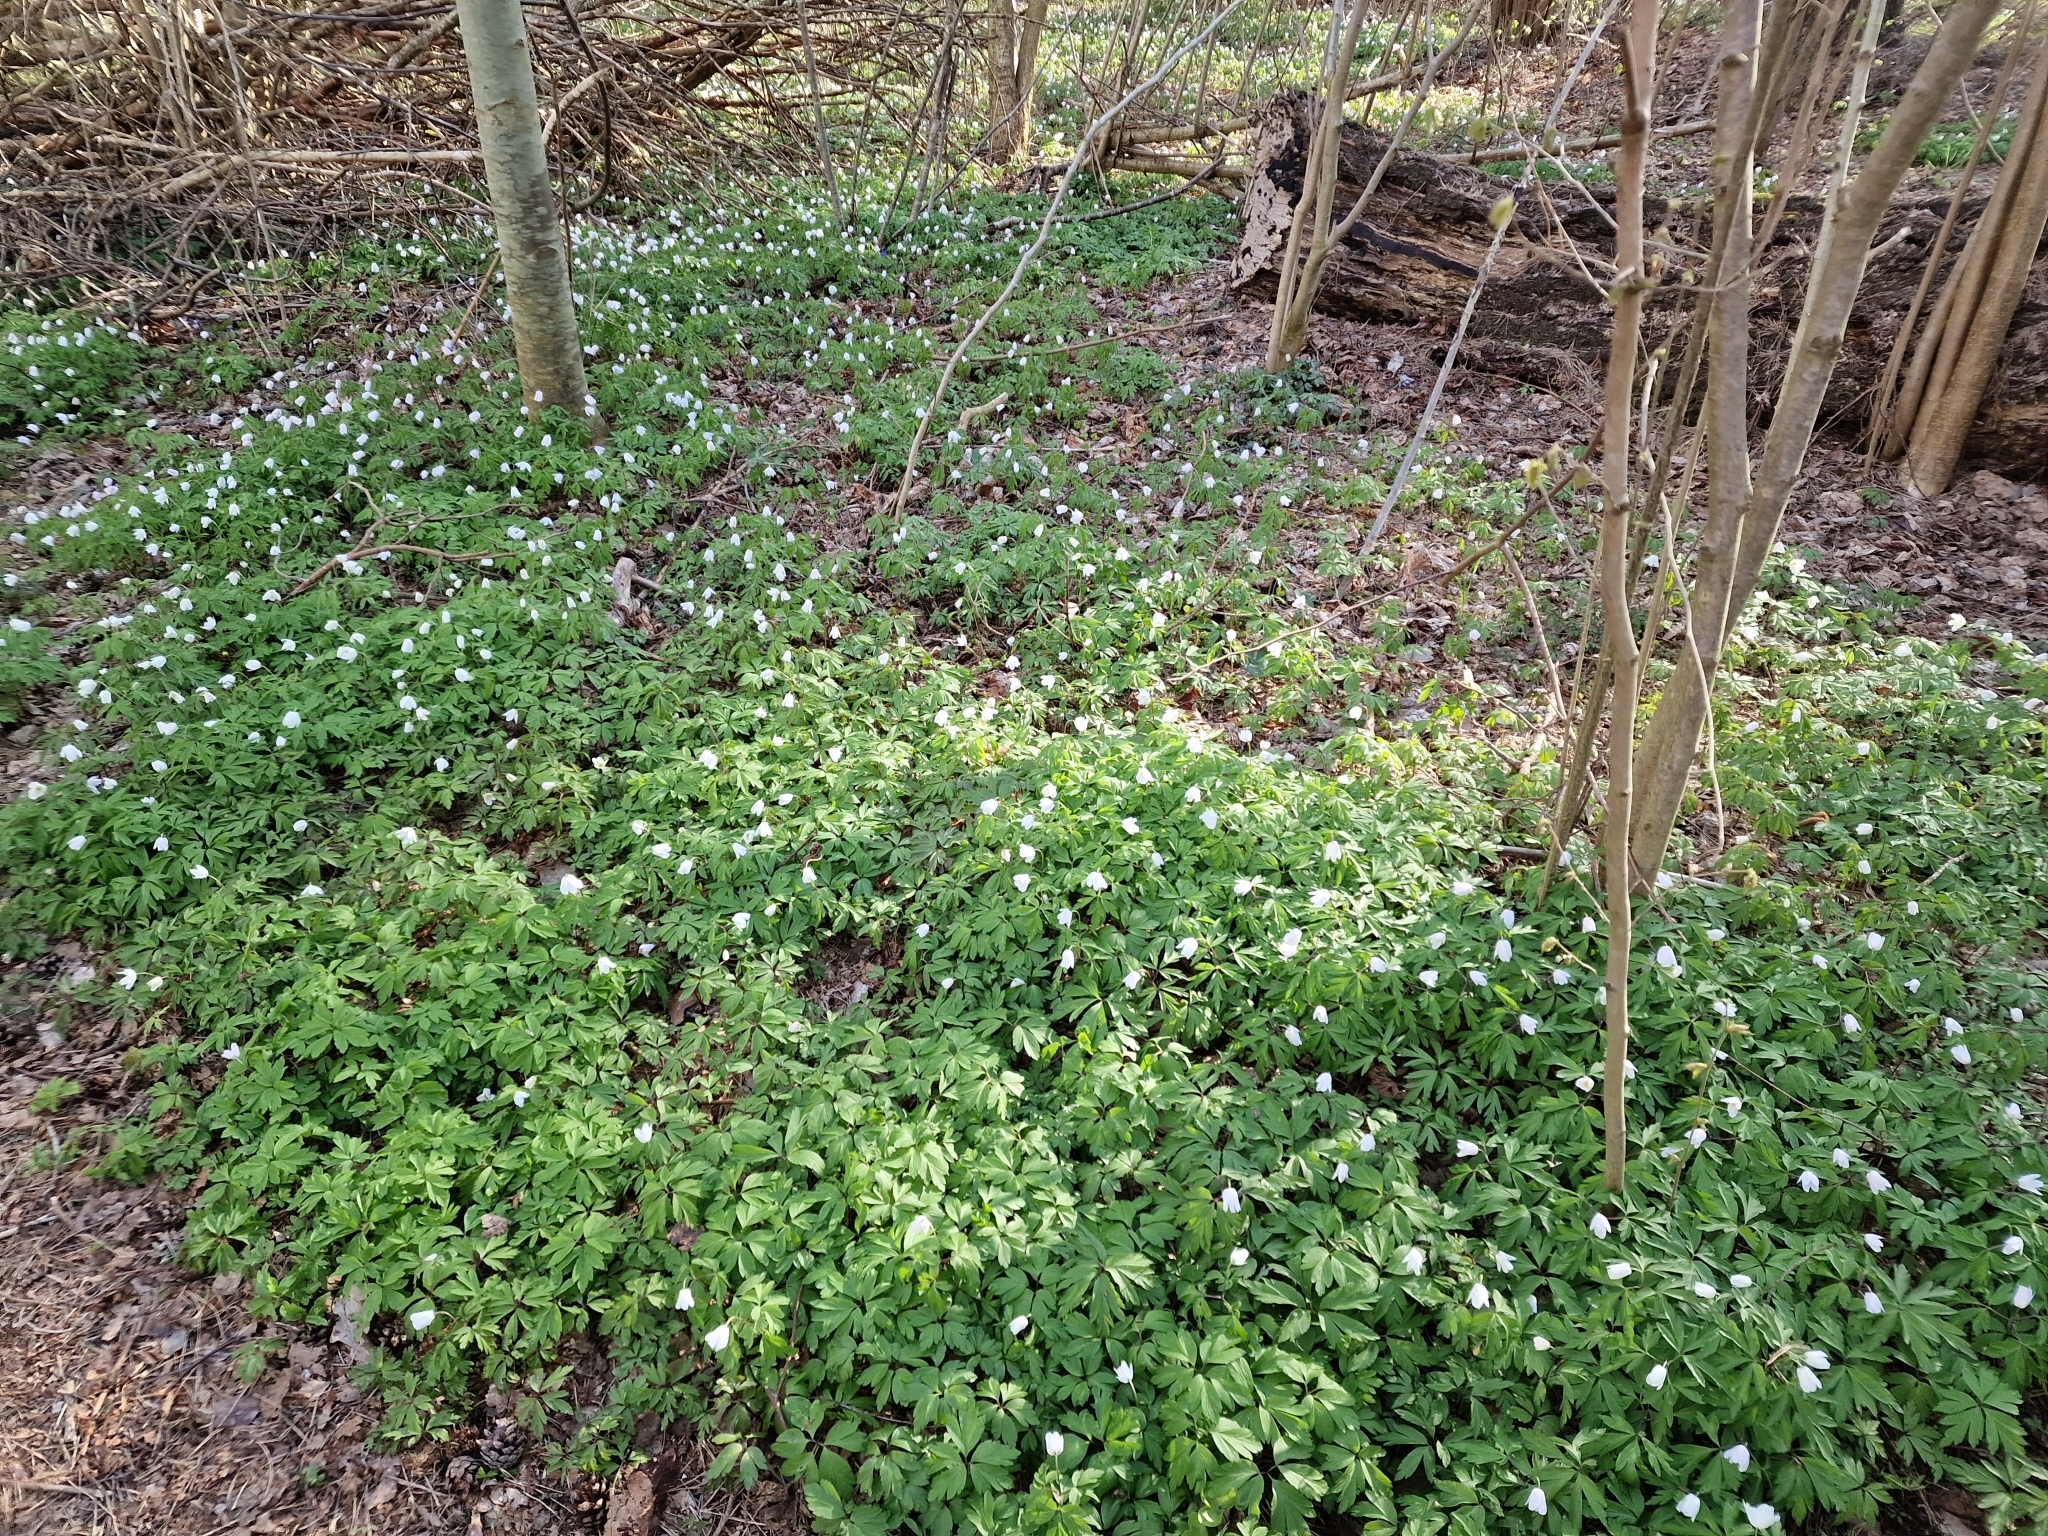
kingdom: Plantae
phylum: Tracheophyta
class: Magnoliopsida
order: Ranunculales
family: Ranunculaceae
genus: Anemone
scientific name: Anemone nemorosa
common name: Wood anemone
